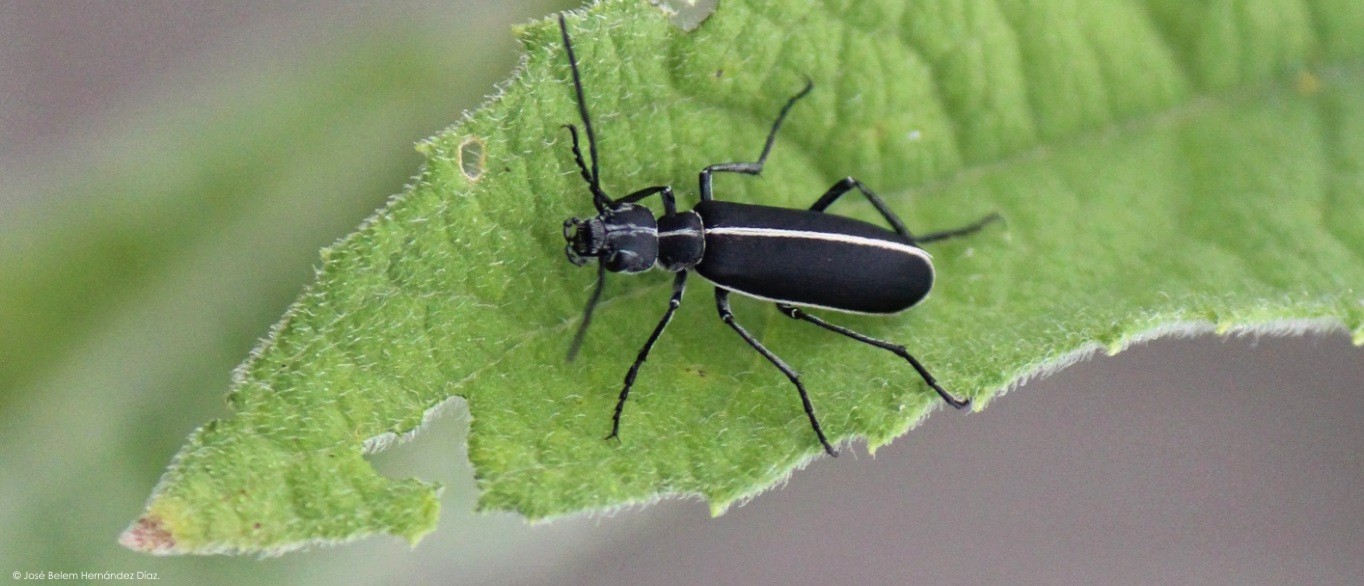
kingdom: Animalia
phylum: Arthropoda
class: Insecta
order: Coleoptera
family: Meloidae
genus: Epicauta
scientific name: Epicauta cinctipennis
